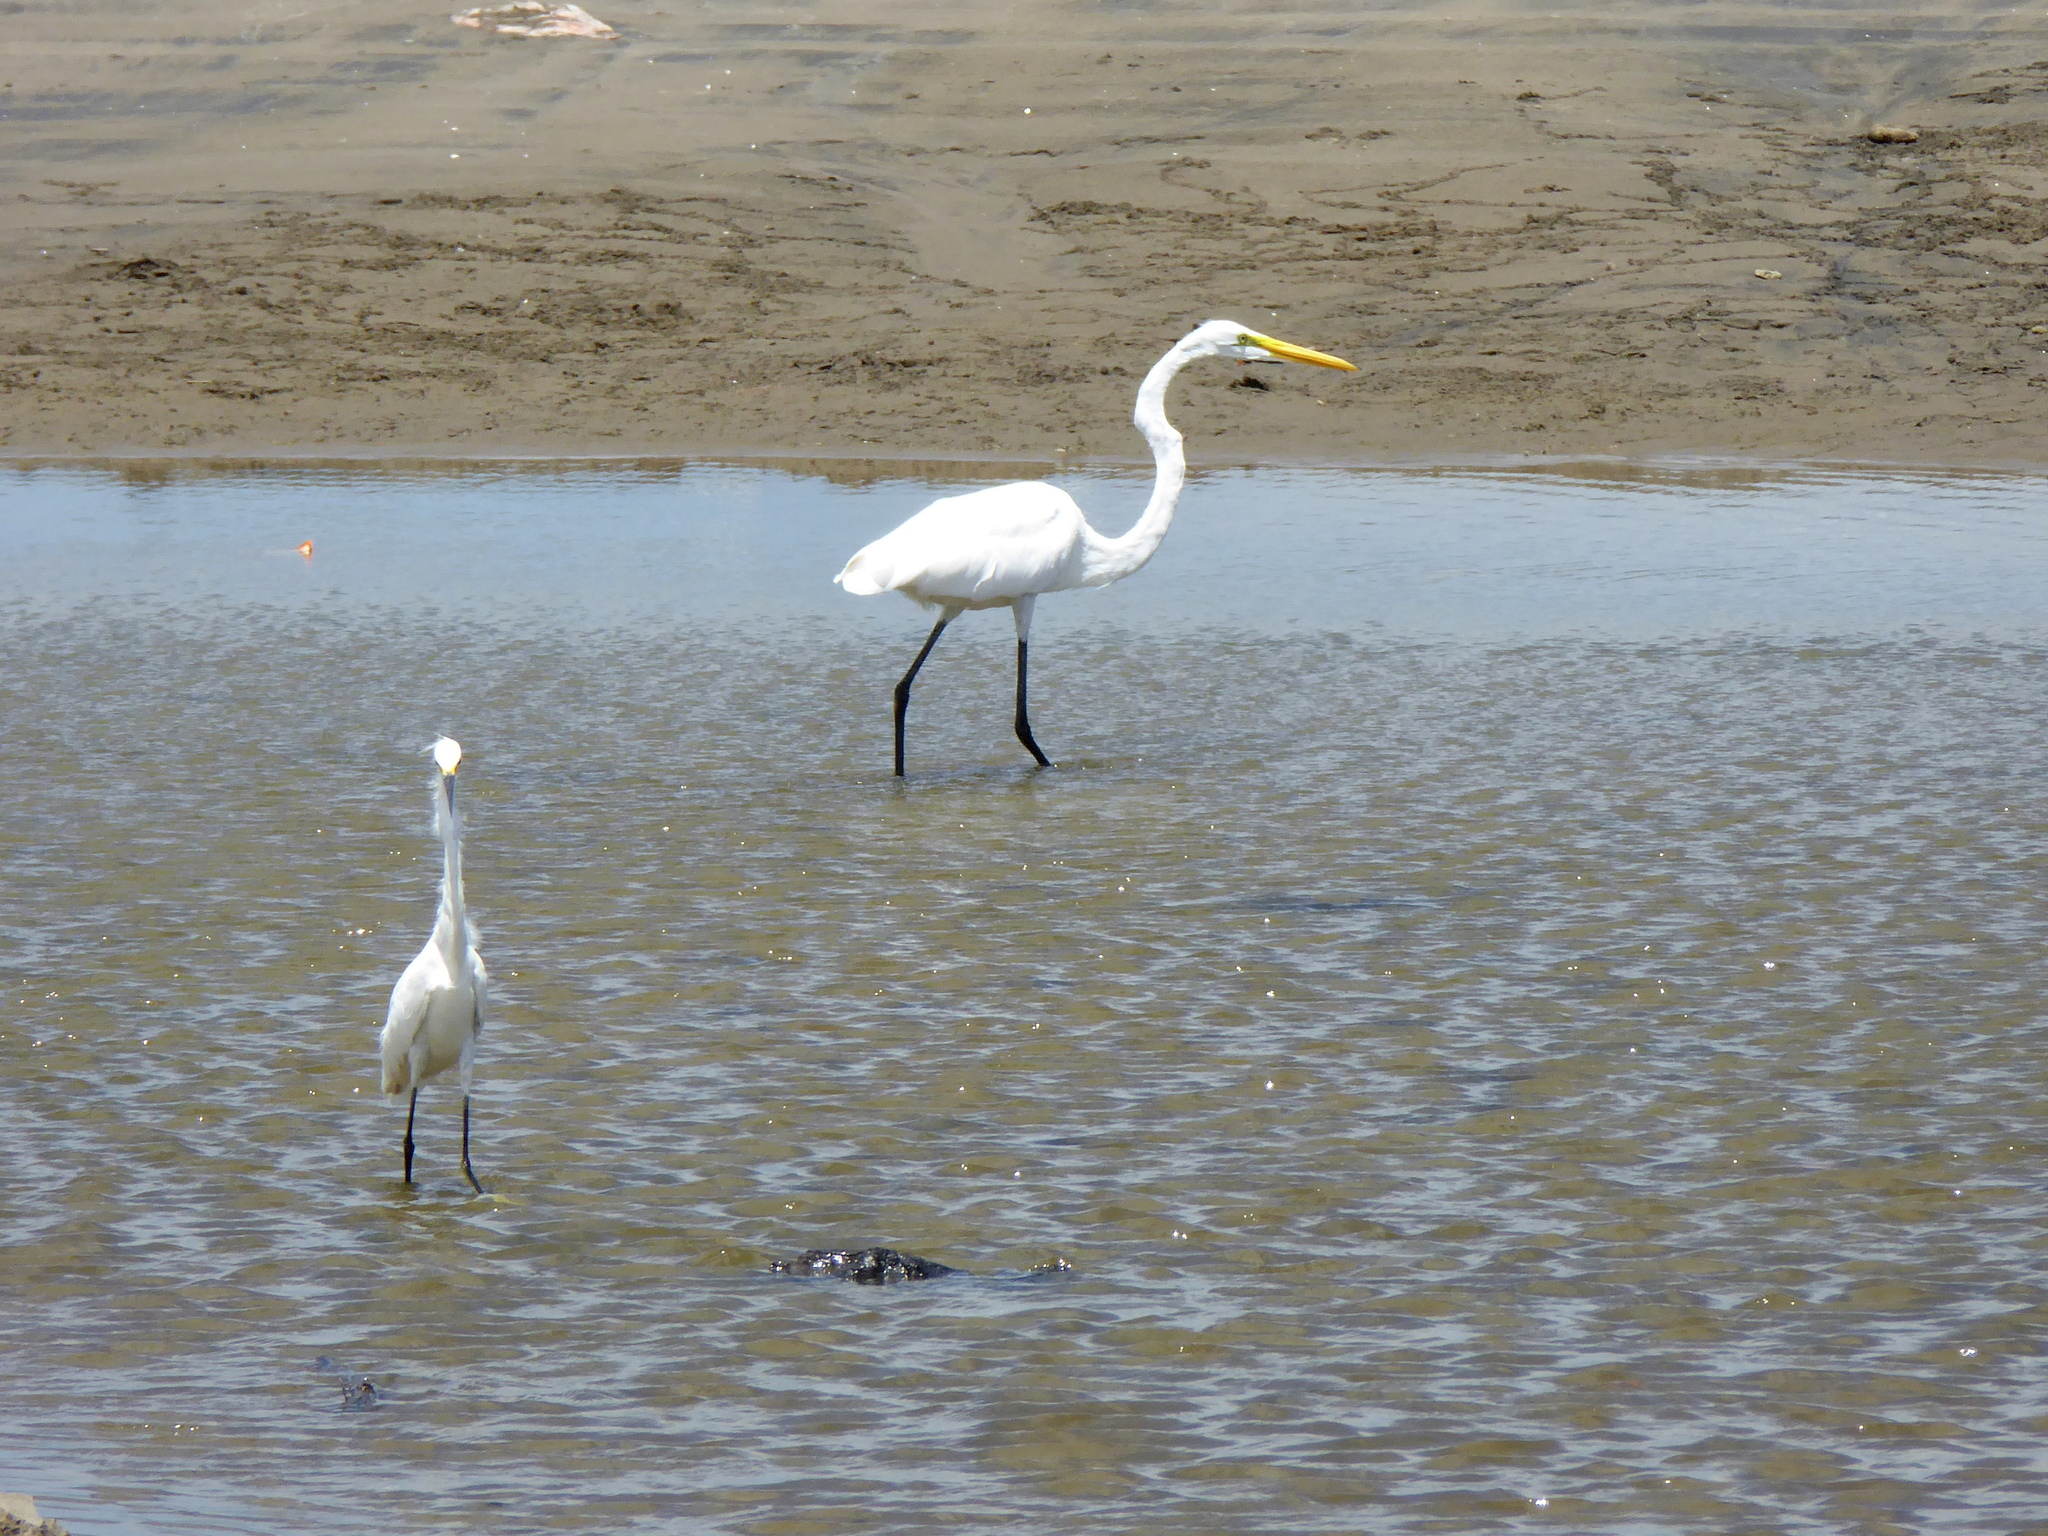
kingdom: Animalia
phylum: Chordata
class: Aves
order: Pelecaniformes
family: Ardeidae
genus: Ardea
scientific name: Ardea alba
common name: Great egret
